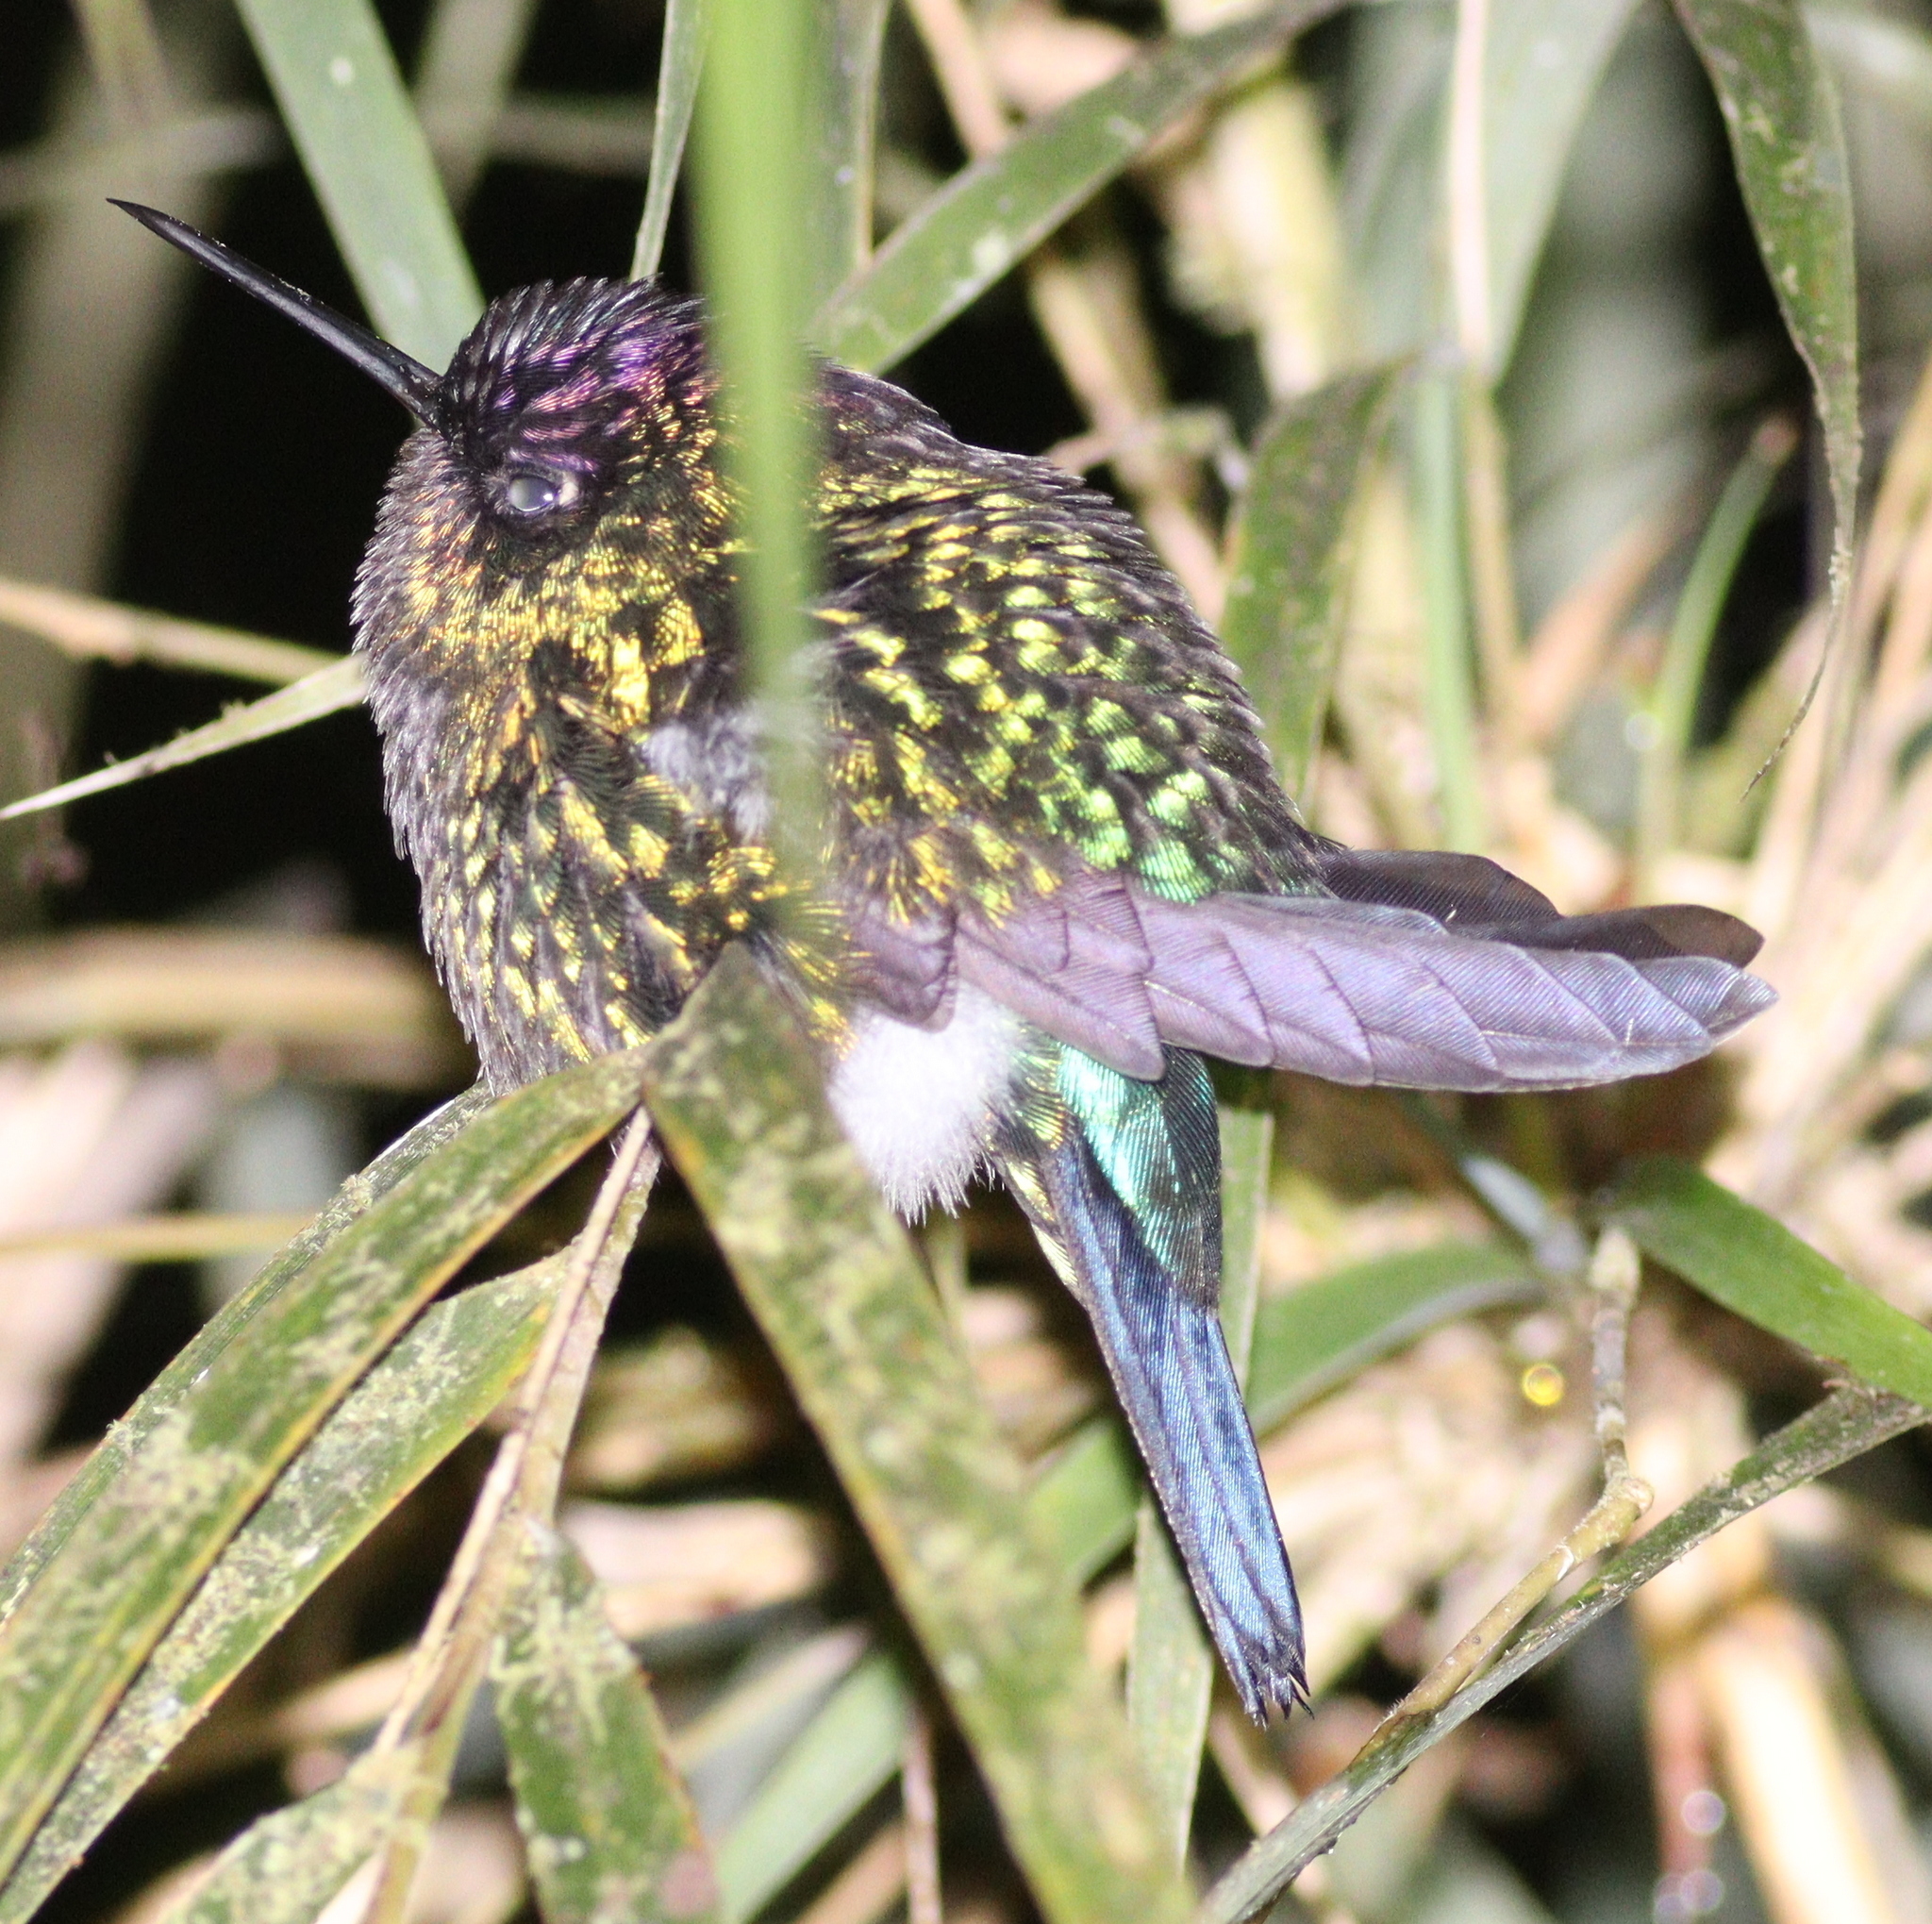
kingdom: Animalia
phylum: Chordata
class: Aves
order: Apodiformes
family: Trochilidae
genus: Panterpe
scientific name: Panterpe insignis
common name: Fiery-throated hummingbird
